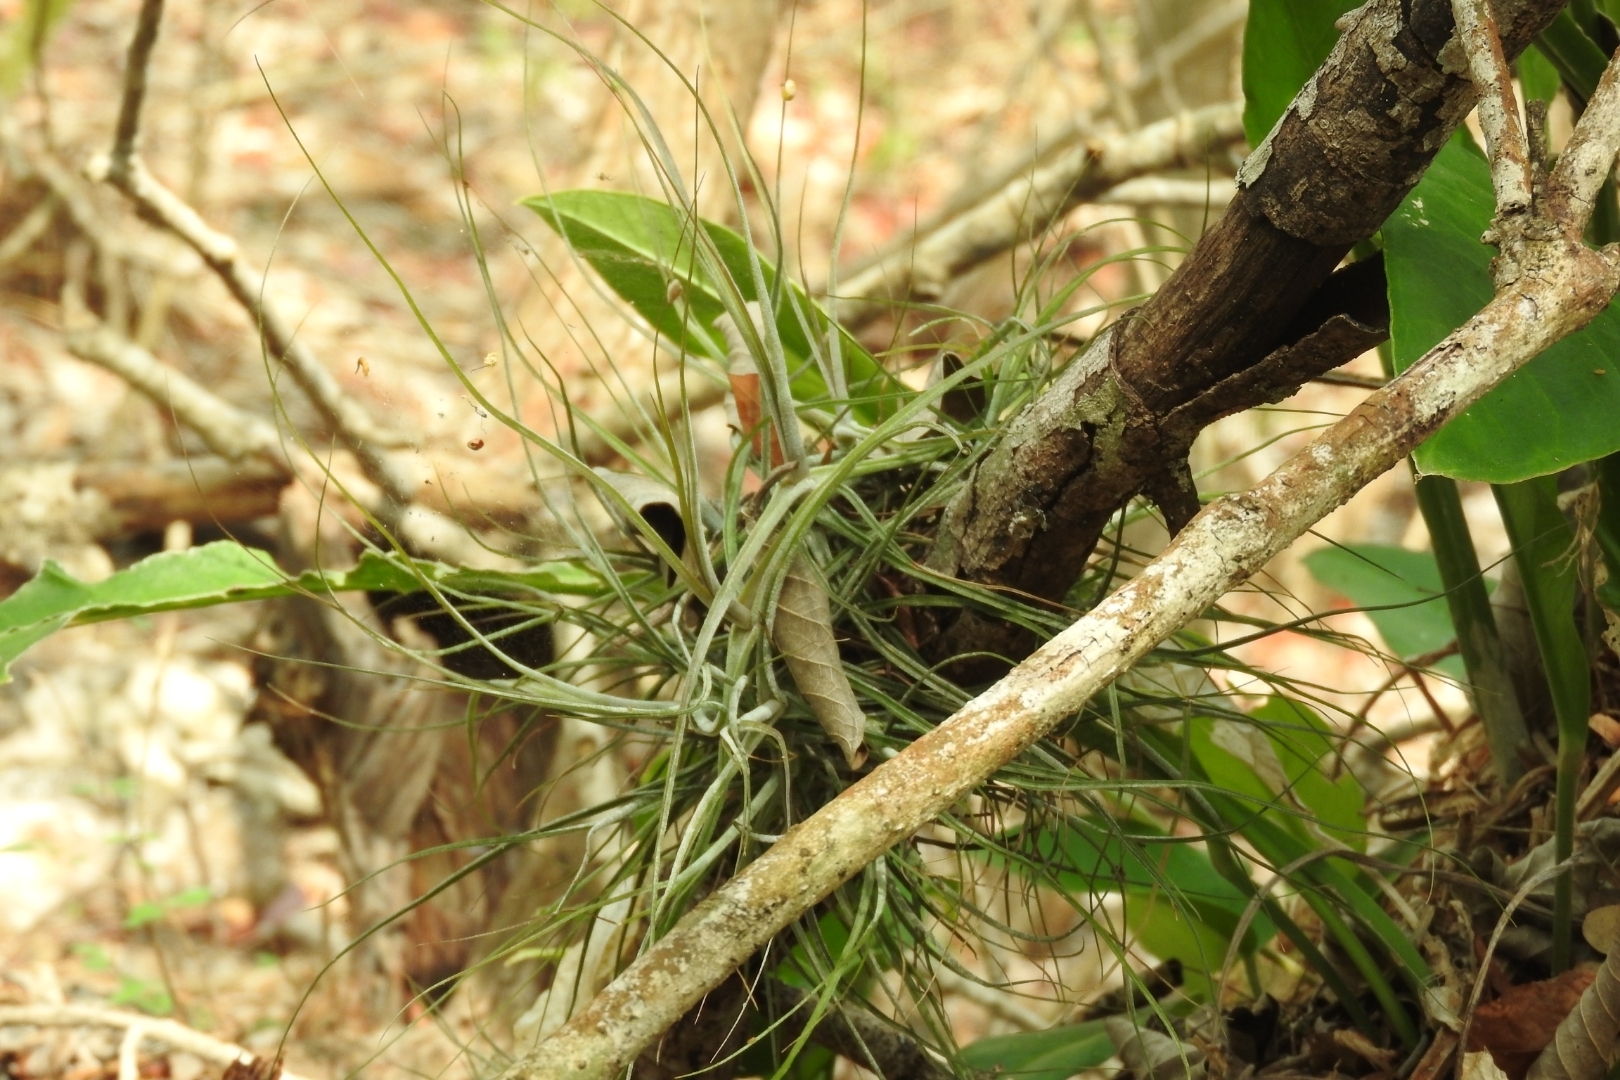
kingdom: Plantae
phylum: Tracheophyta
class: Liliopsida
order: Poales
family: Bromeliaceae
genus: Tillandsia
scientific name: Tillandsia schiedeana
